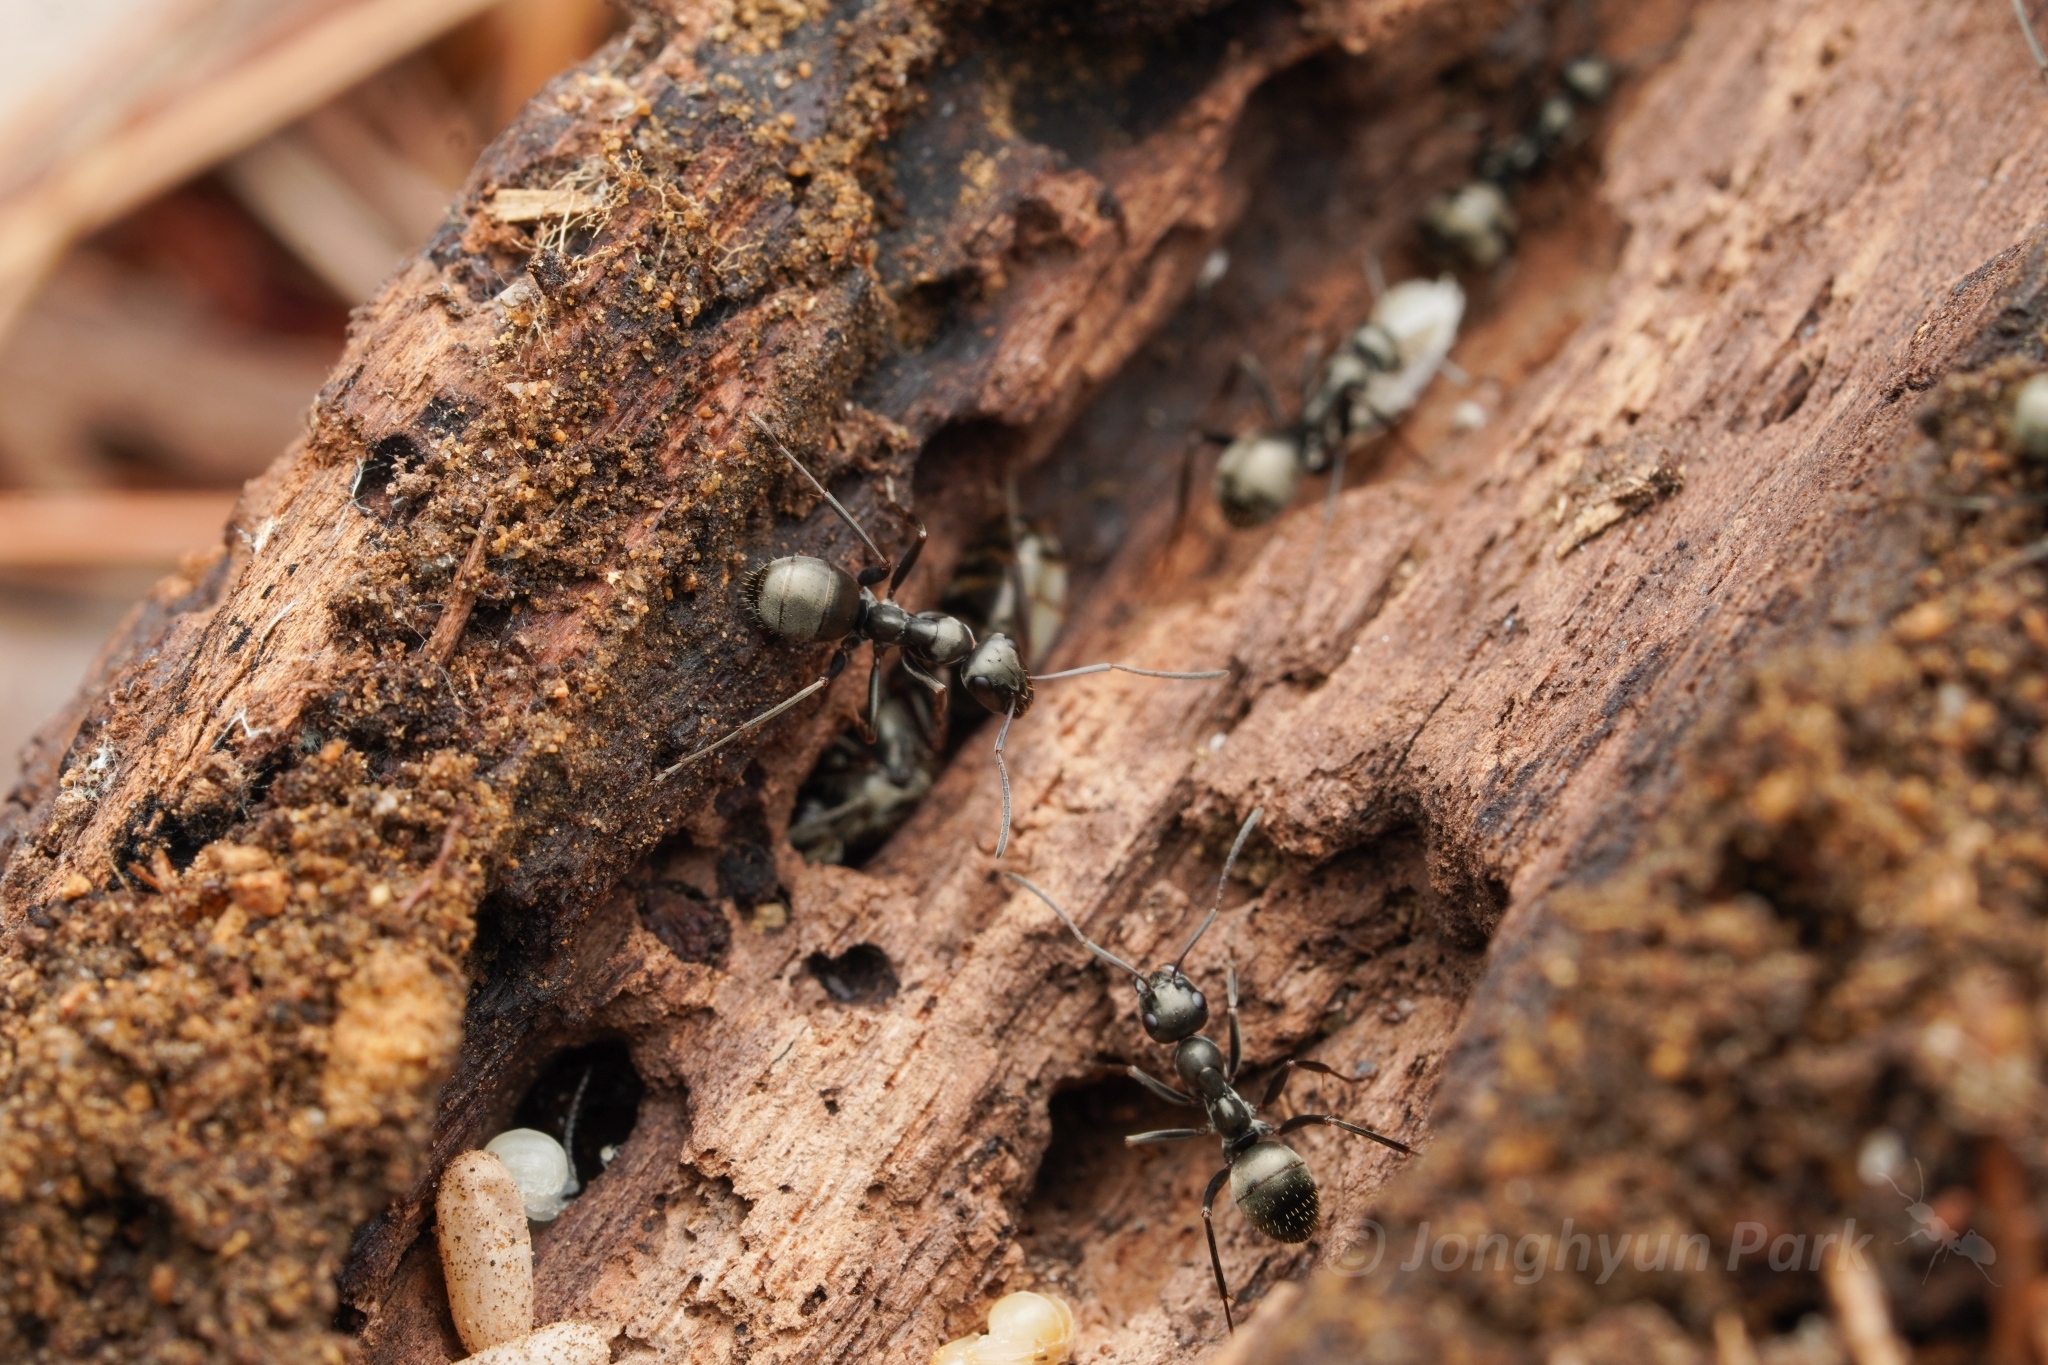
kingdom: Animalia
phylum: Arthropoda
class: Insecta
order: Hymenoptera
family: Formicidae
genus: Formica
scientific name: Formica subsericea
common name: Silky field ant
